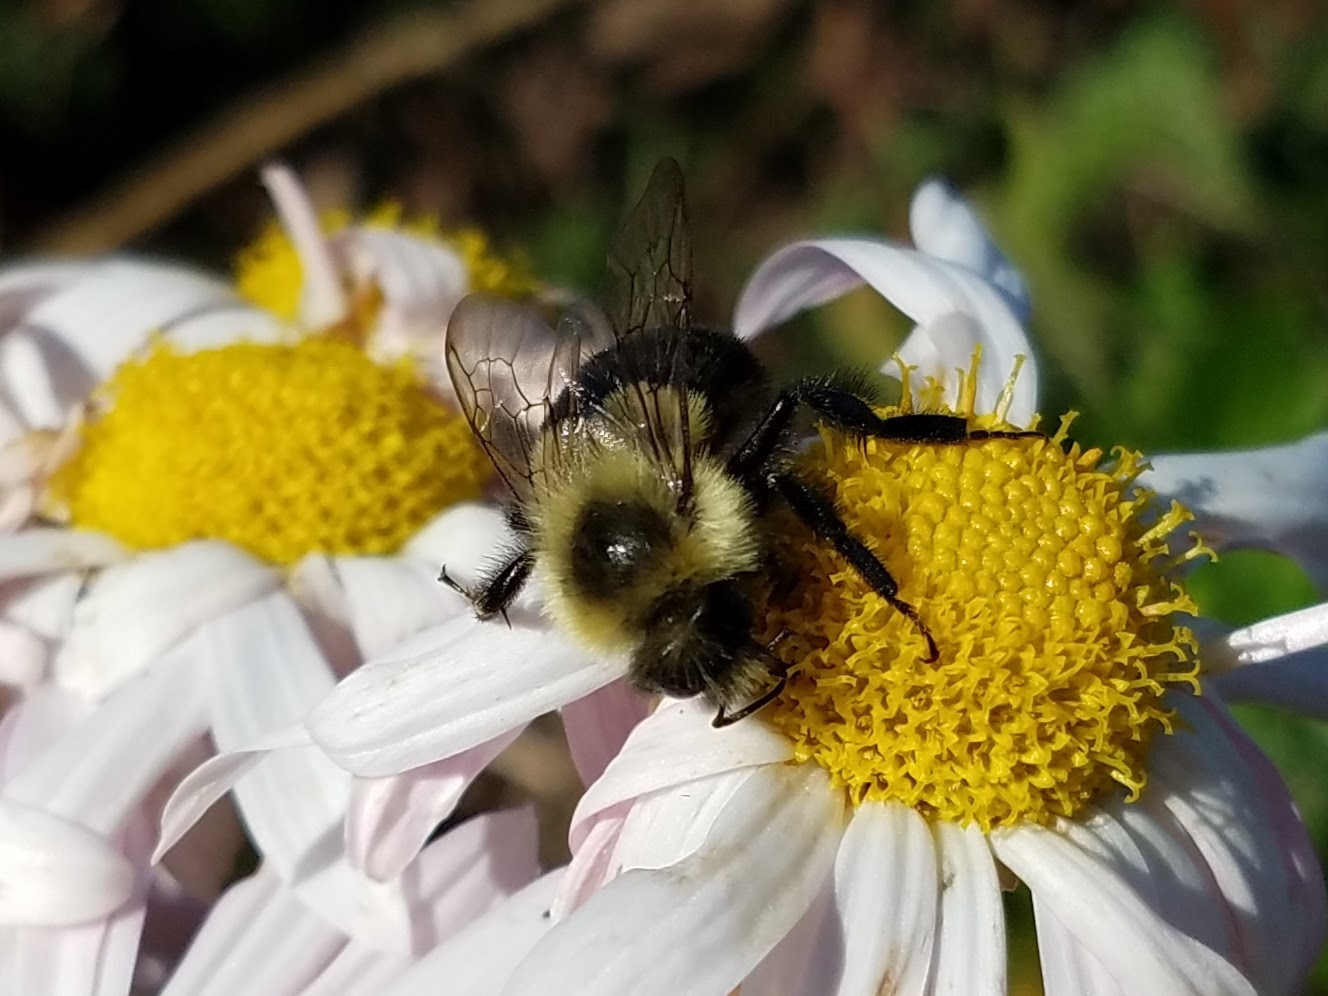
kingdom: Animalia
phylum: Arthropoda
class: Insecta
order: Hymenoptera
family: Apidae
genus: Bombus
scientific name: Bombus impatiens
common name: Common eastern bumble bee
